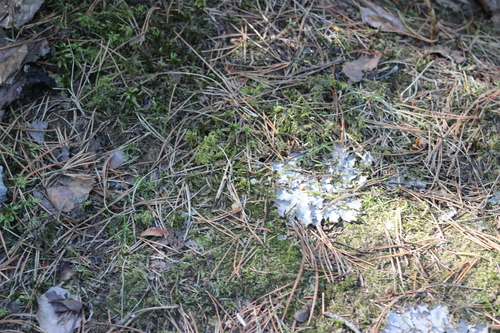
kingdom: Fungi
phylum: Ascomycota
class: Lecanoromycetes
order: Peltigerales
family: Peltigeraceae
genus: Peltigera
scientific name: Peltigera polydactylon
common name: Many-fruited pelt lichen
